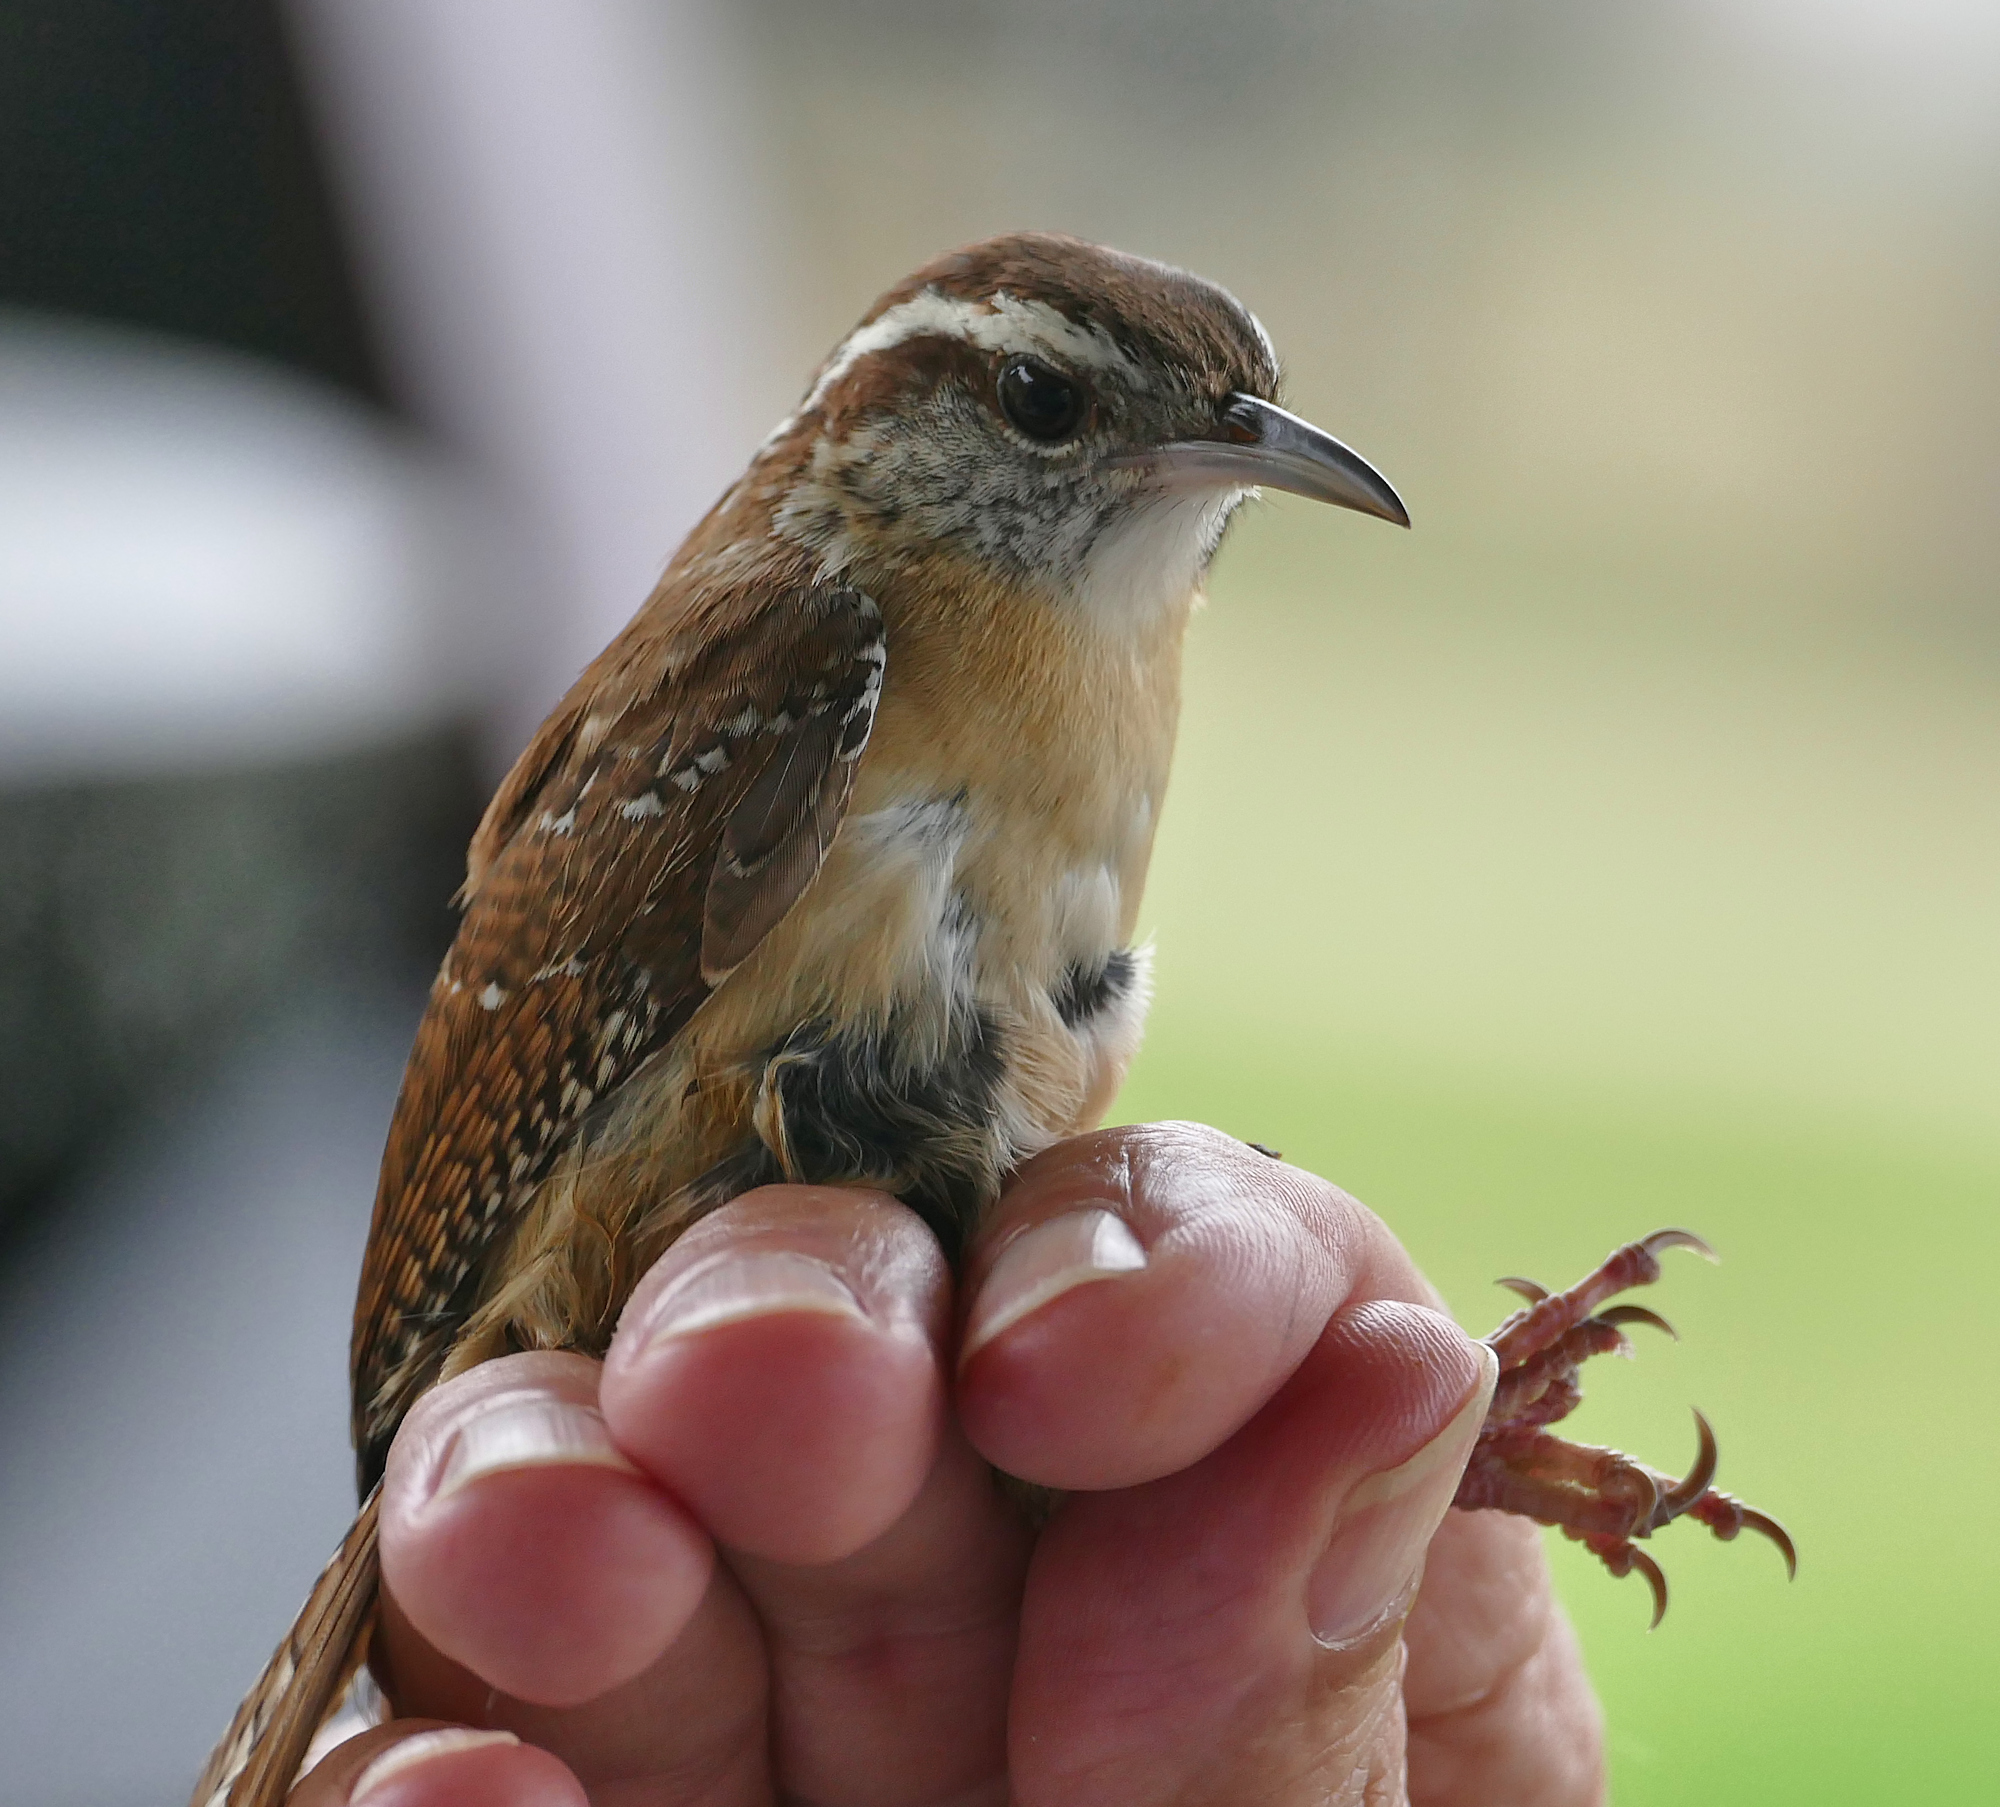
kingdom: Animalia
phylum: Chordata
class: Aves
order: Passeriformes
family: Troglodytidae
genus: Thryothorus
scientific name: Thryothorus ludovicianus
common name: Carolina wren
